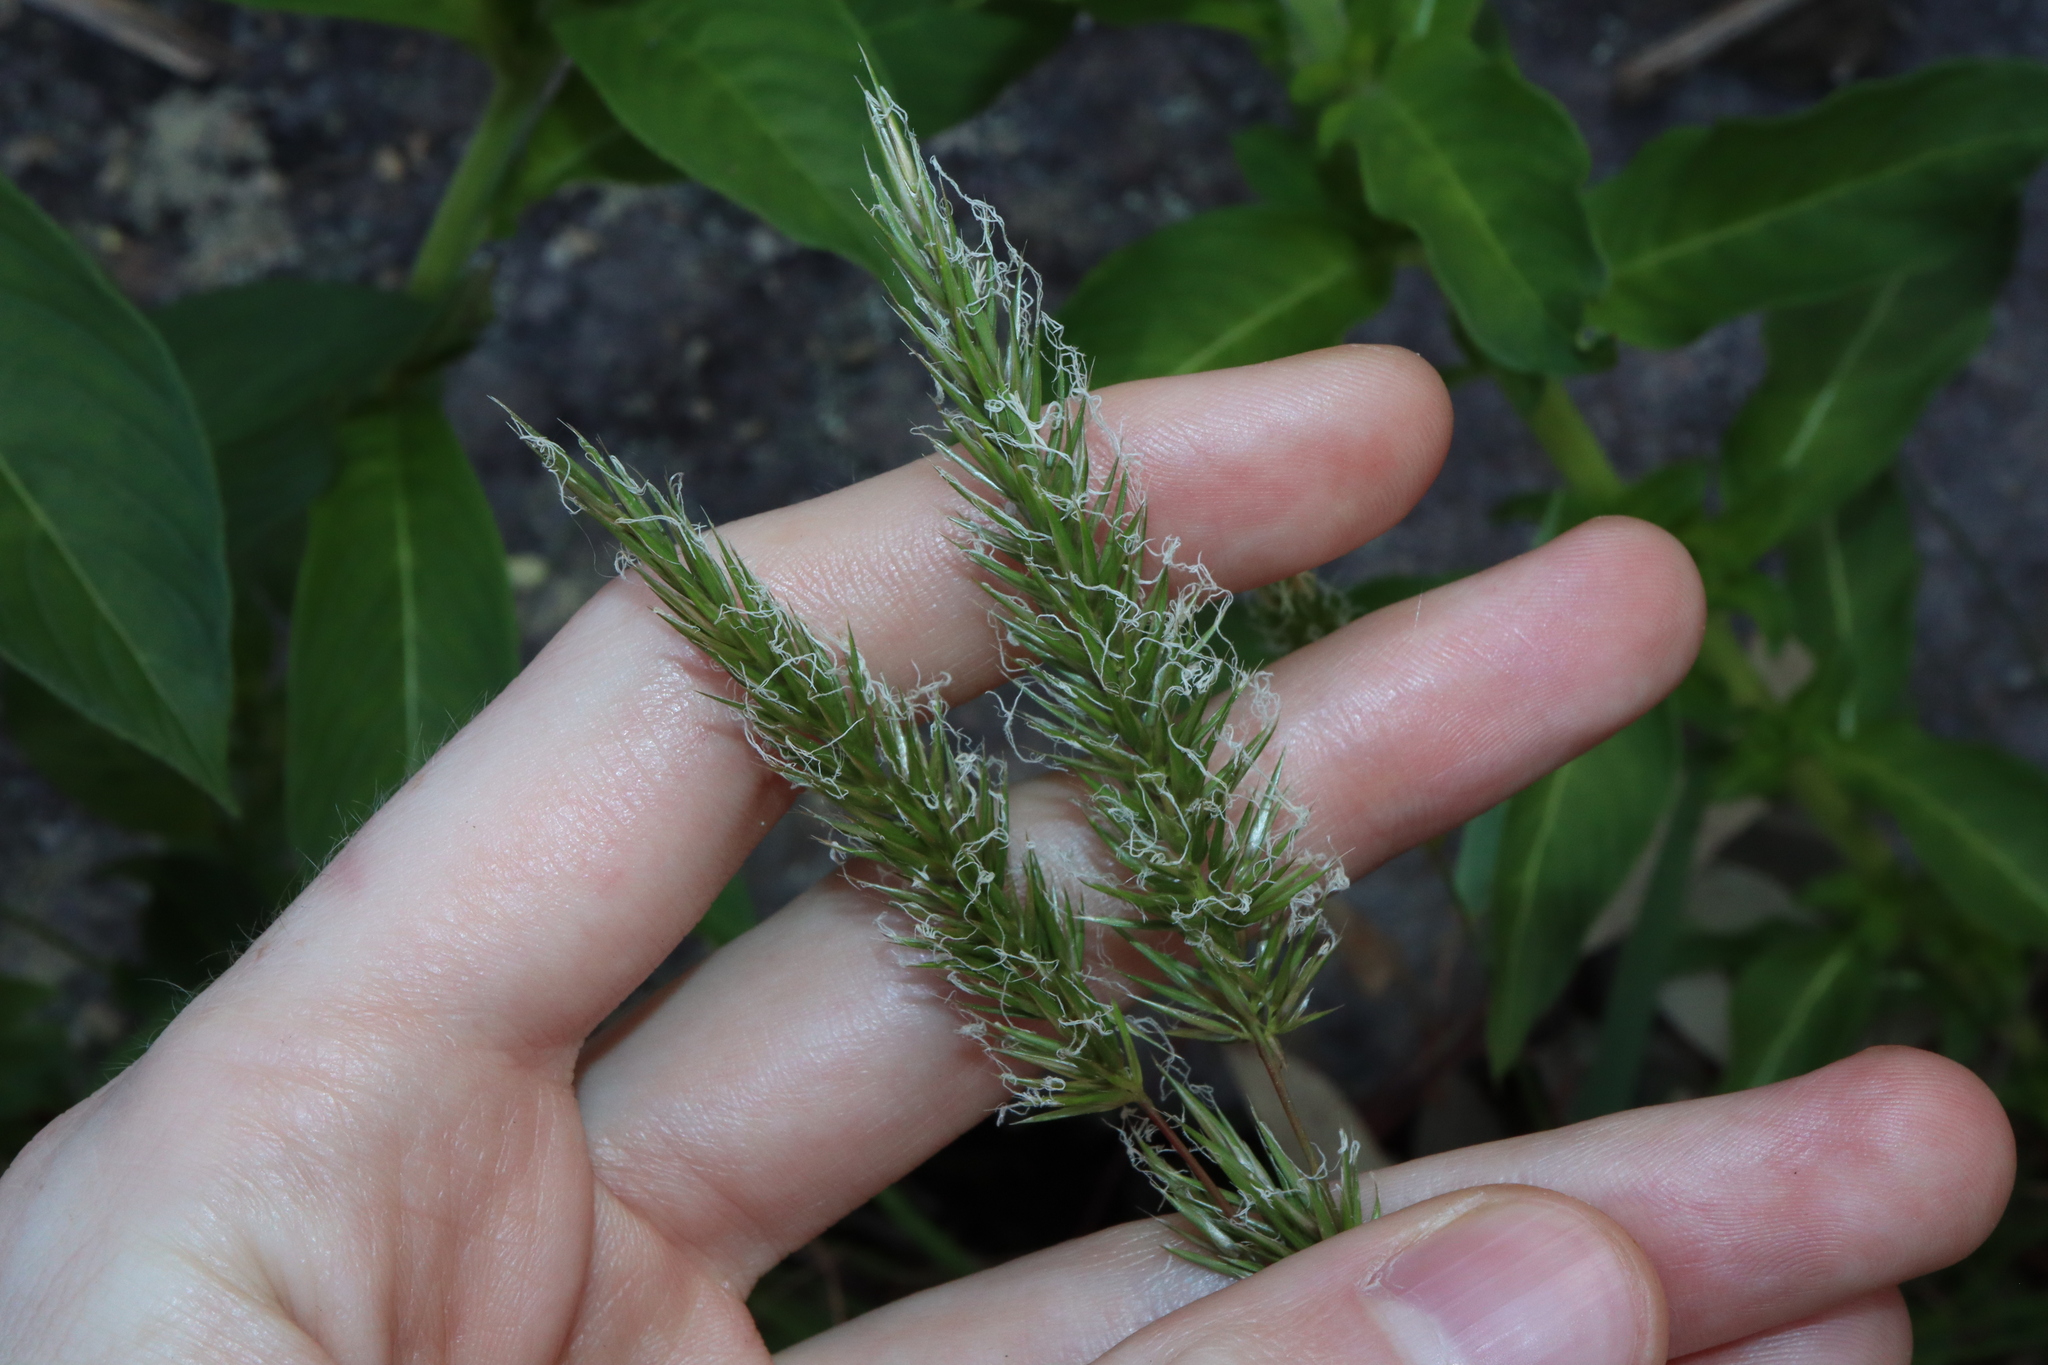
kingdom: Plantae
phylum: Tracheophyta
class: Liliopsida
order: Poales
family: Poaceae
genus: Anthoxanthum
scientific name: Anthoxanthum odoratum
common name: Sweet vernalgrass
